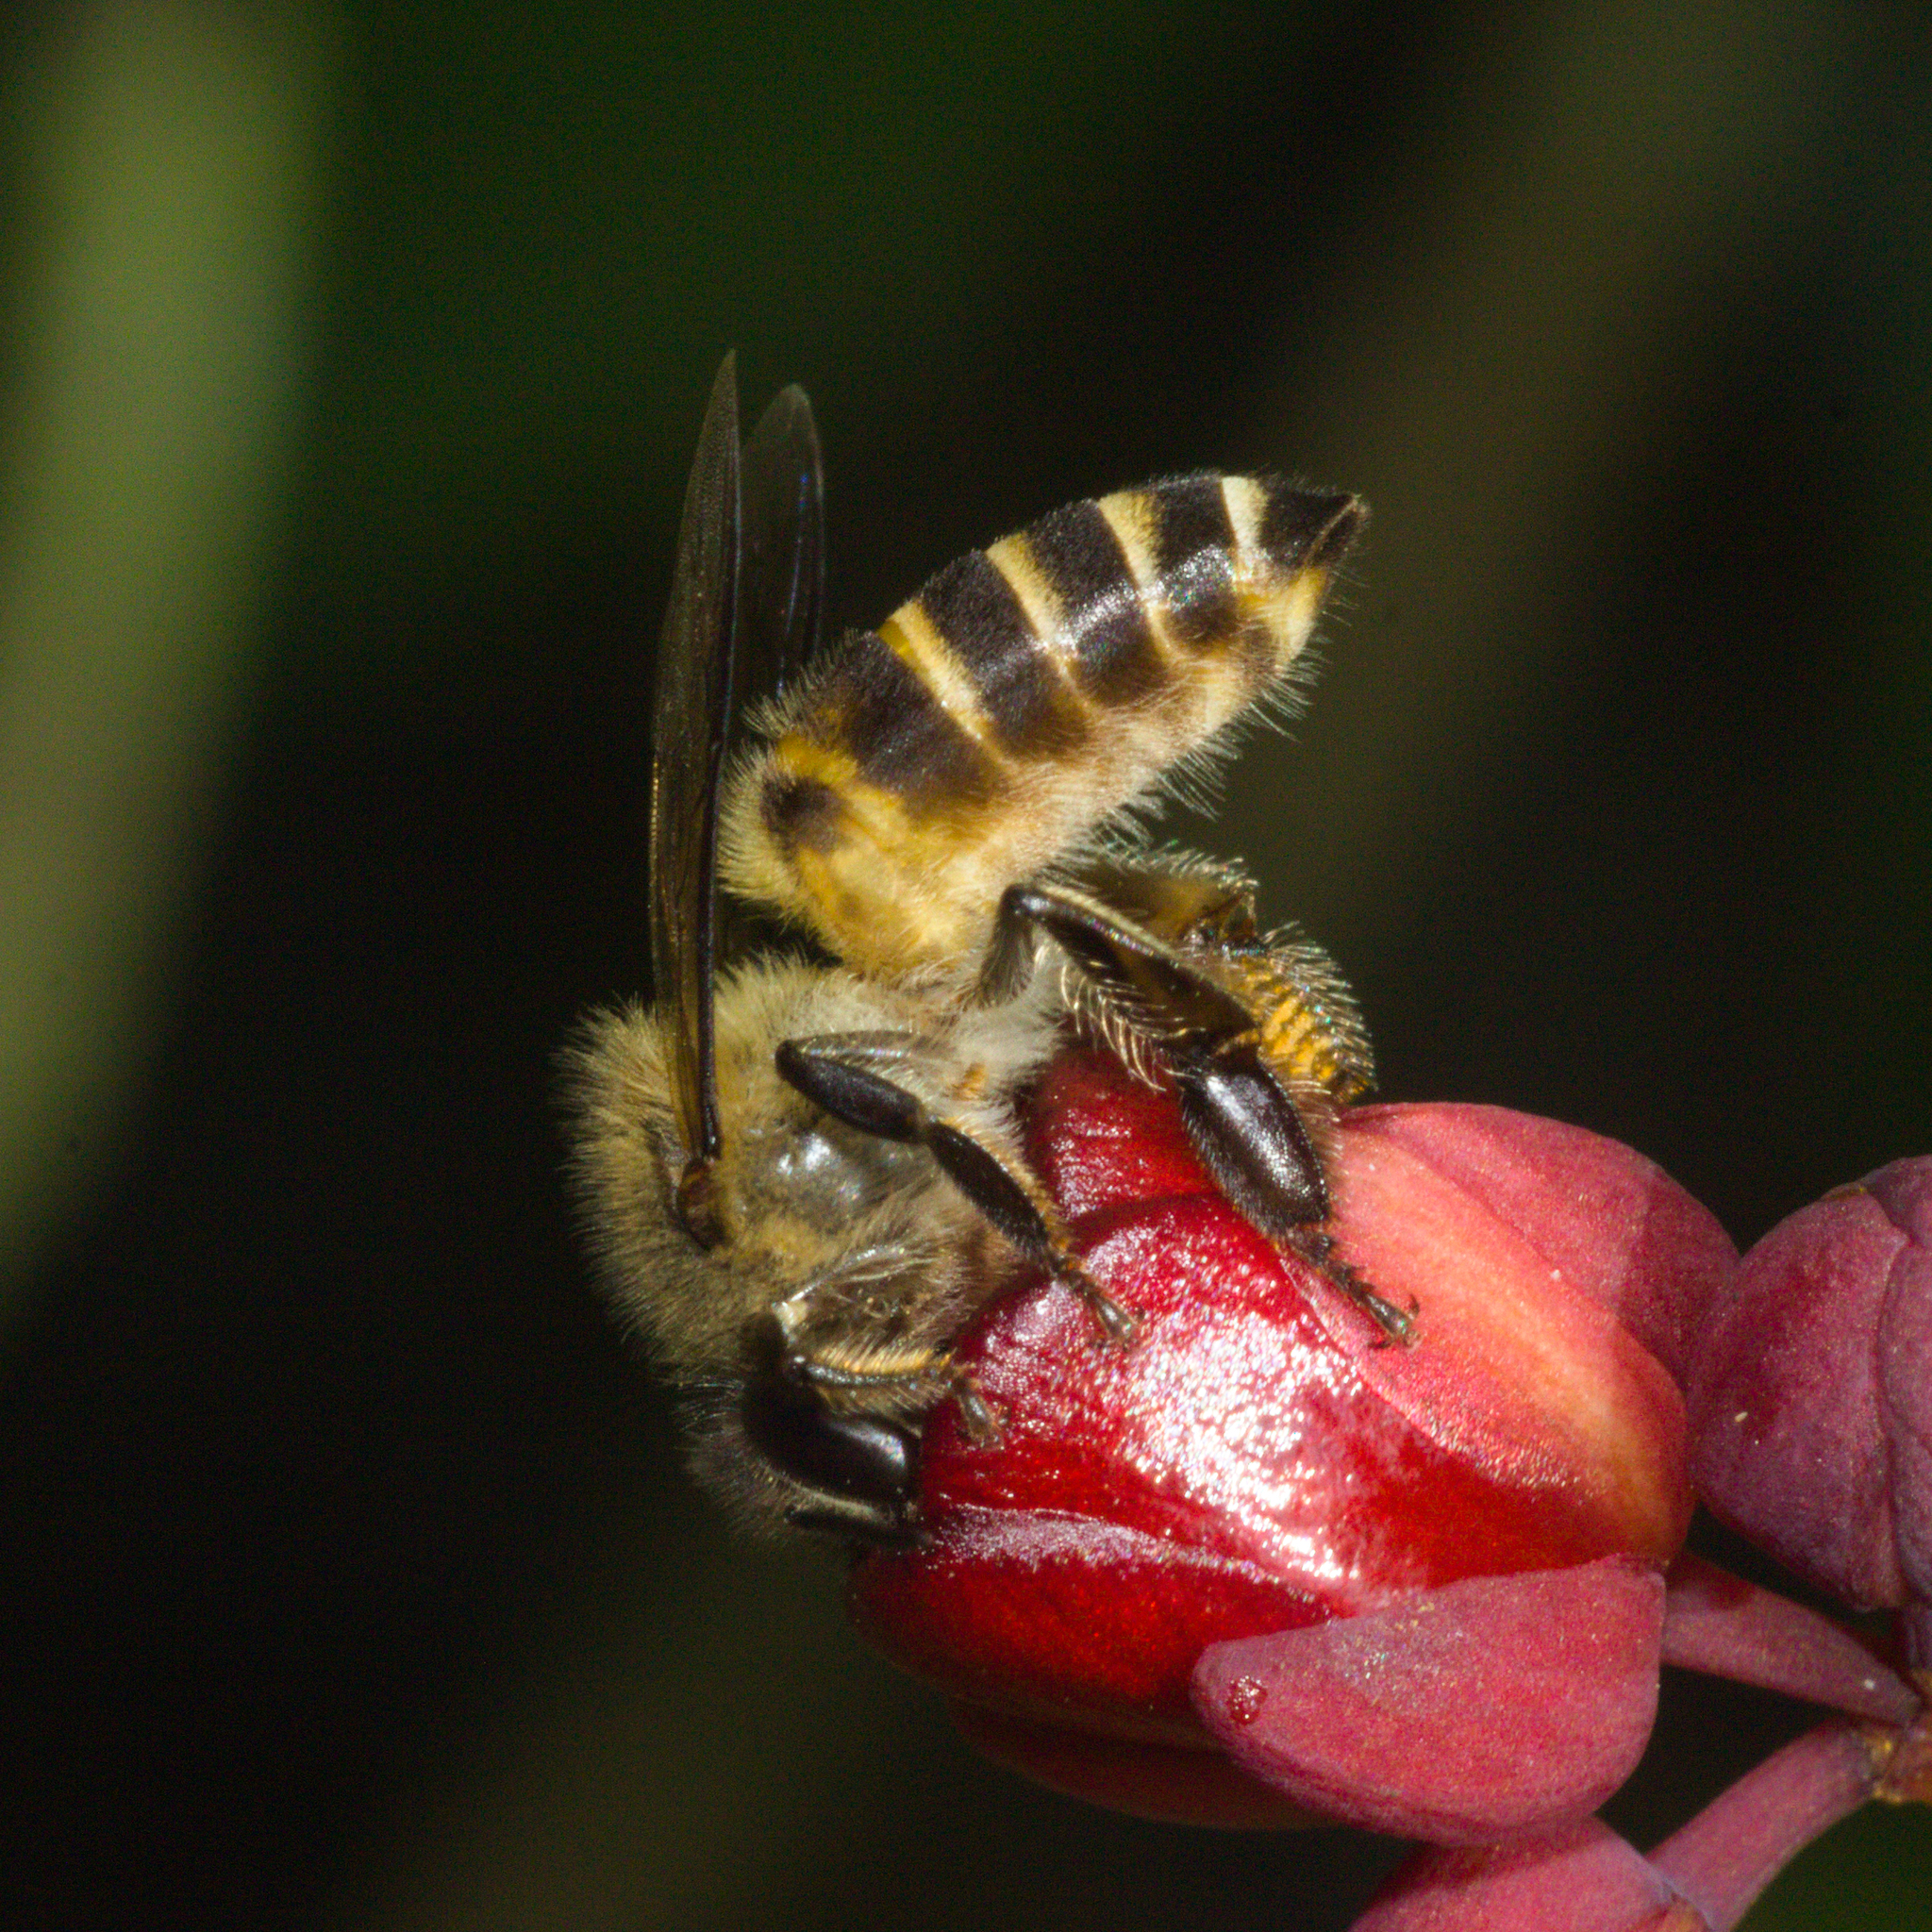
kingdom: Animalia
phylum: Arthropoda
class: Insecta
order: Hymenoptera
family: Apidae
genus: Apis
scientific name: Apis cerana
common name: Honey bee
